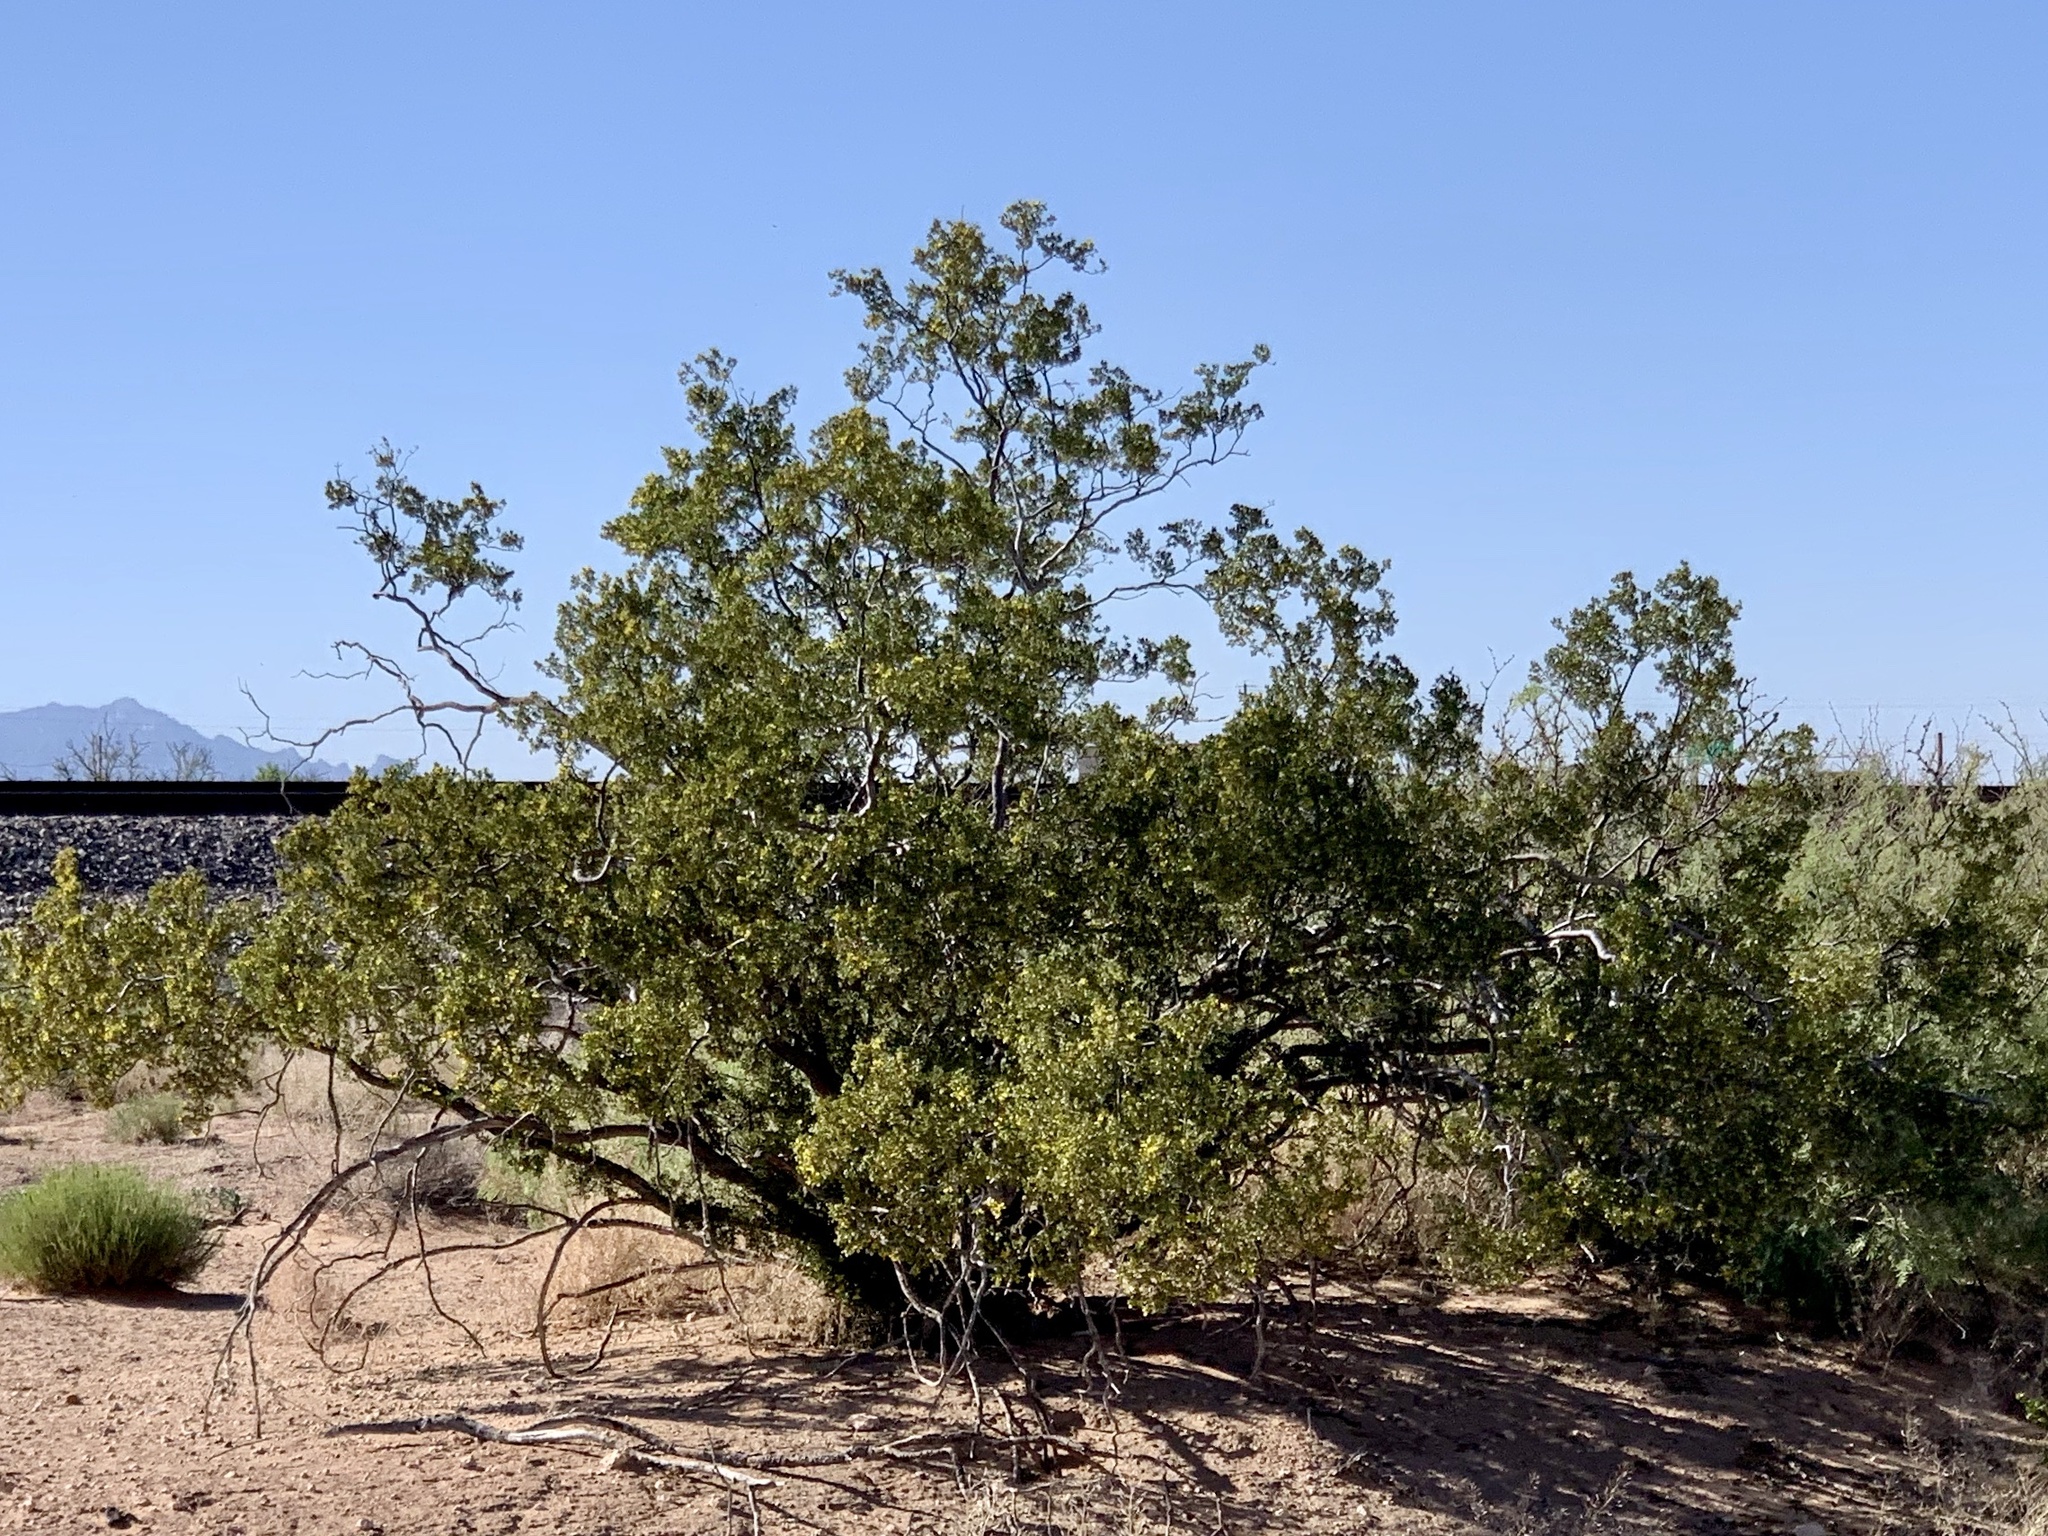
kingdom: Plantae
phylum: Tracheophyta
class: Magnoliopsida
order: Zygophyllales
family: Zygophyllaceae
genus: Larrea
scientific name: Larrea tridentata
